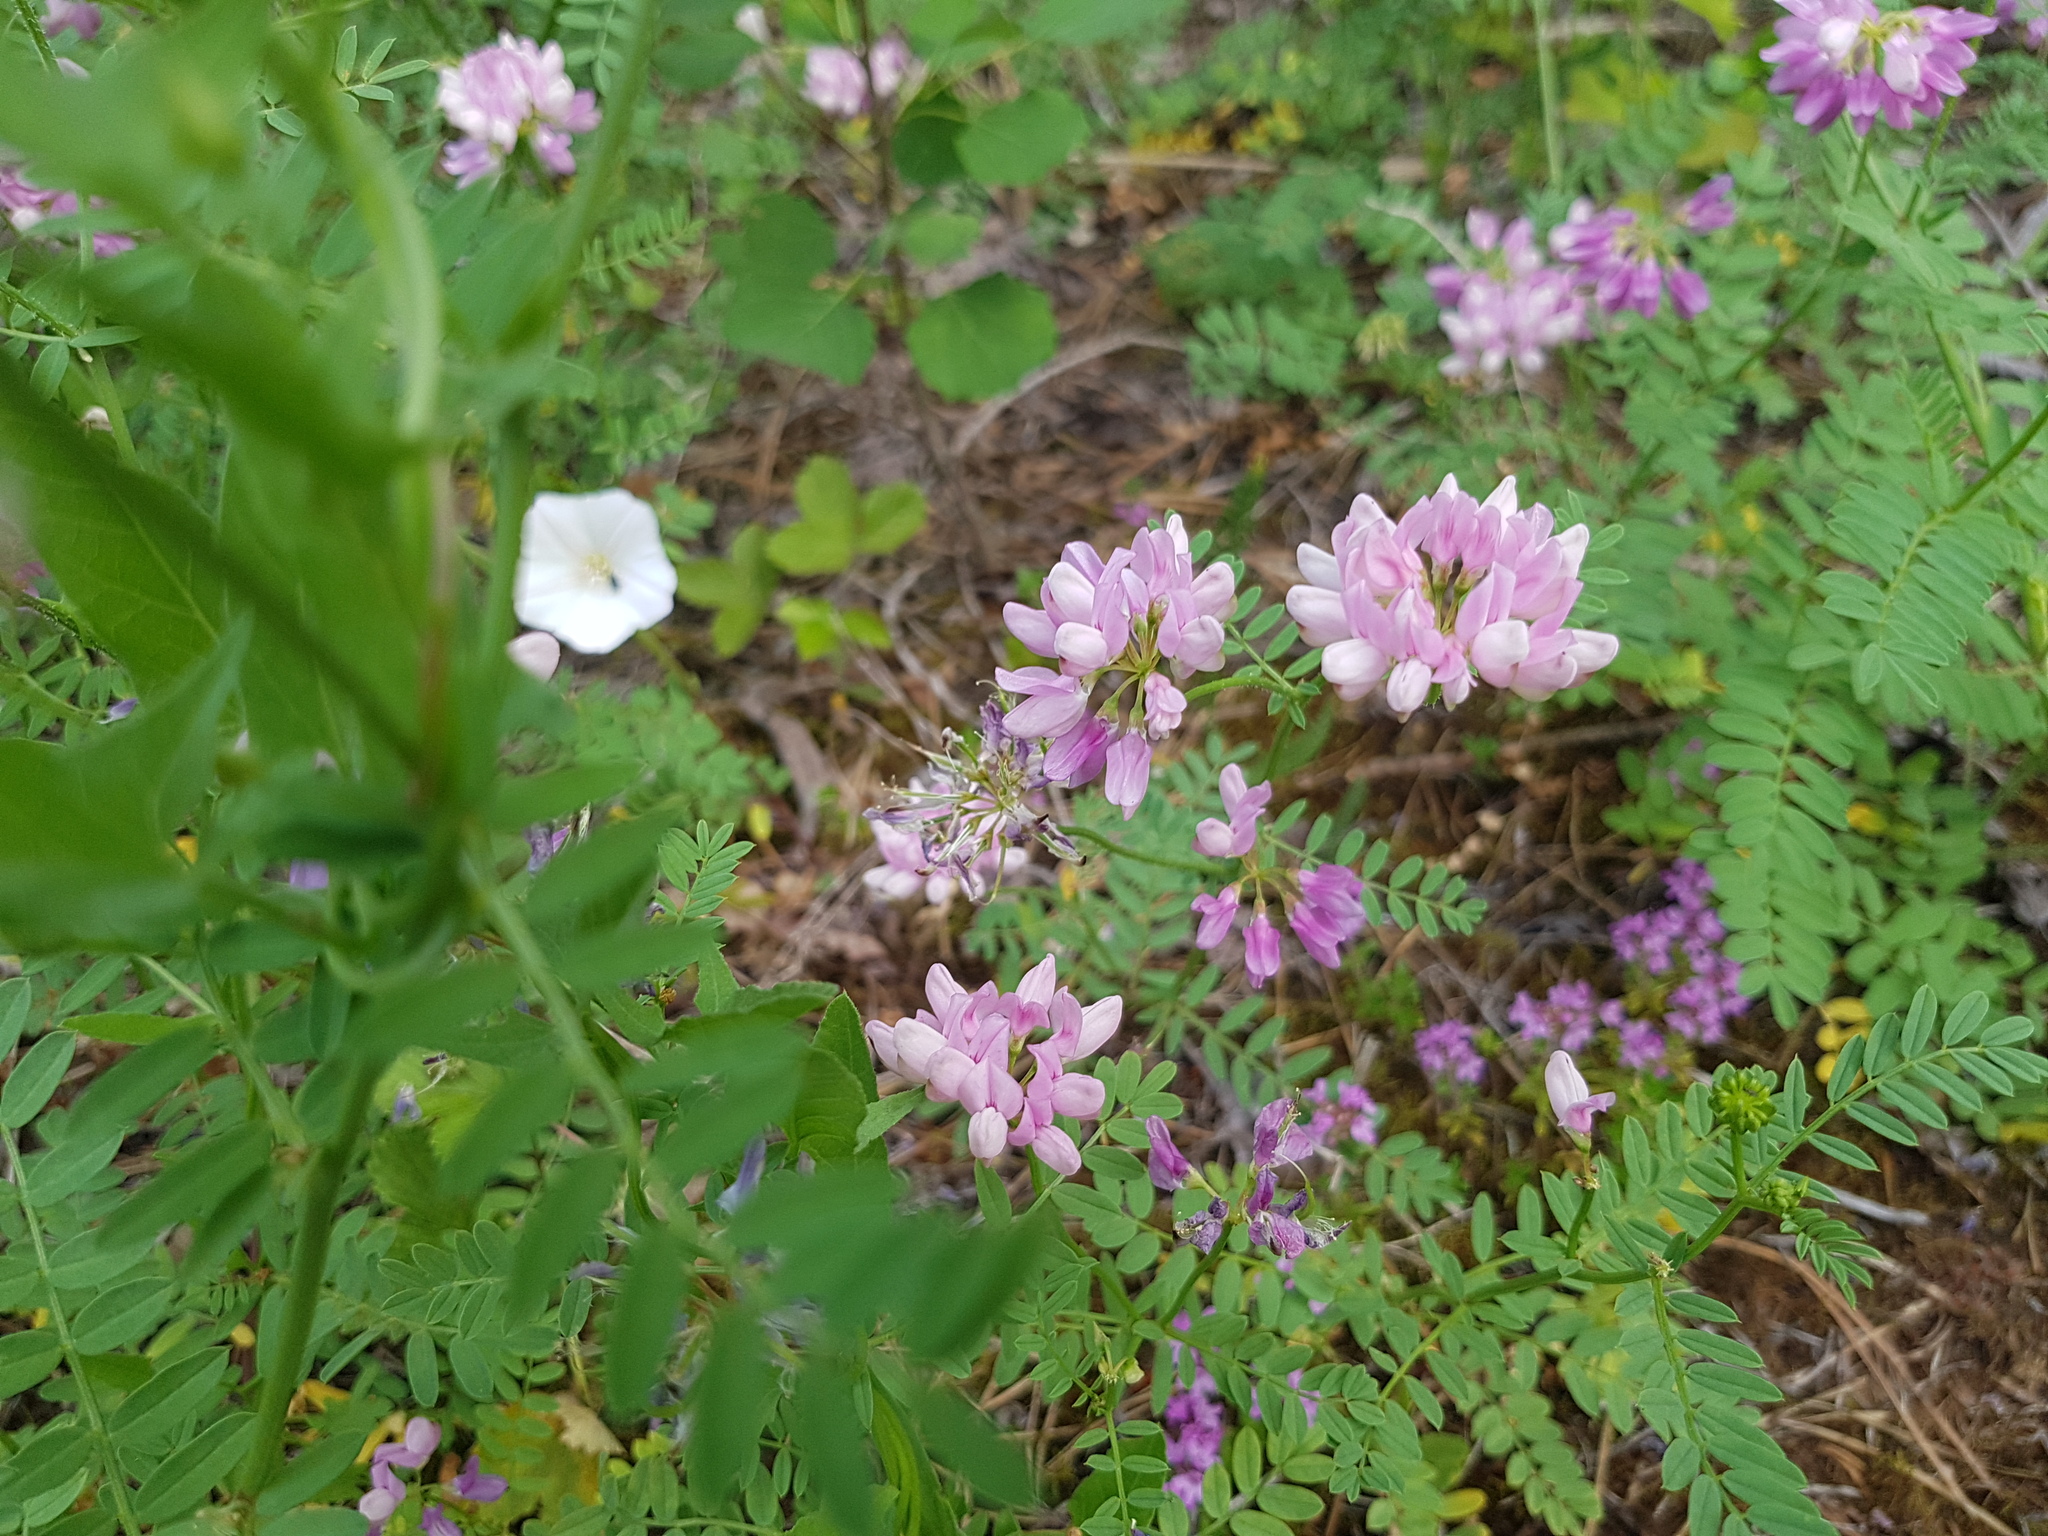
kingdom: Plantae
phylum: Tracheophyta
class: Magnoliopsida
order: Fabales
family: Fabaceae
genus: Coronilla
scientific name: Coronilla varia
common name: Crownvetch
